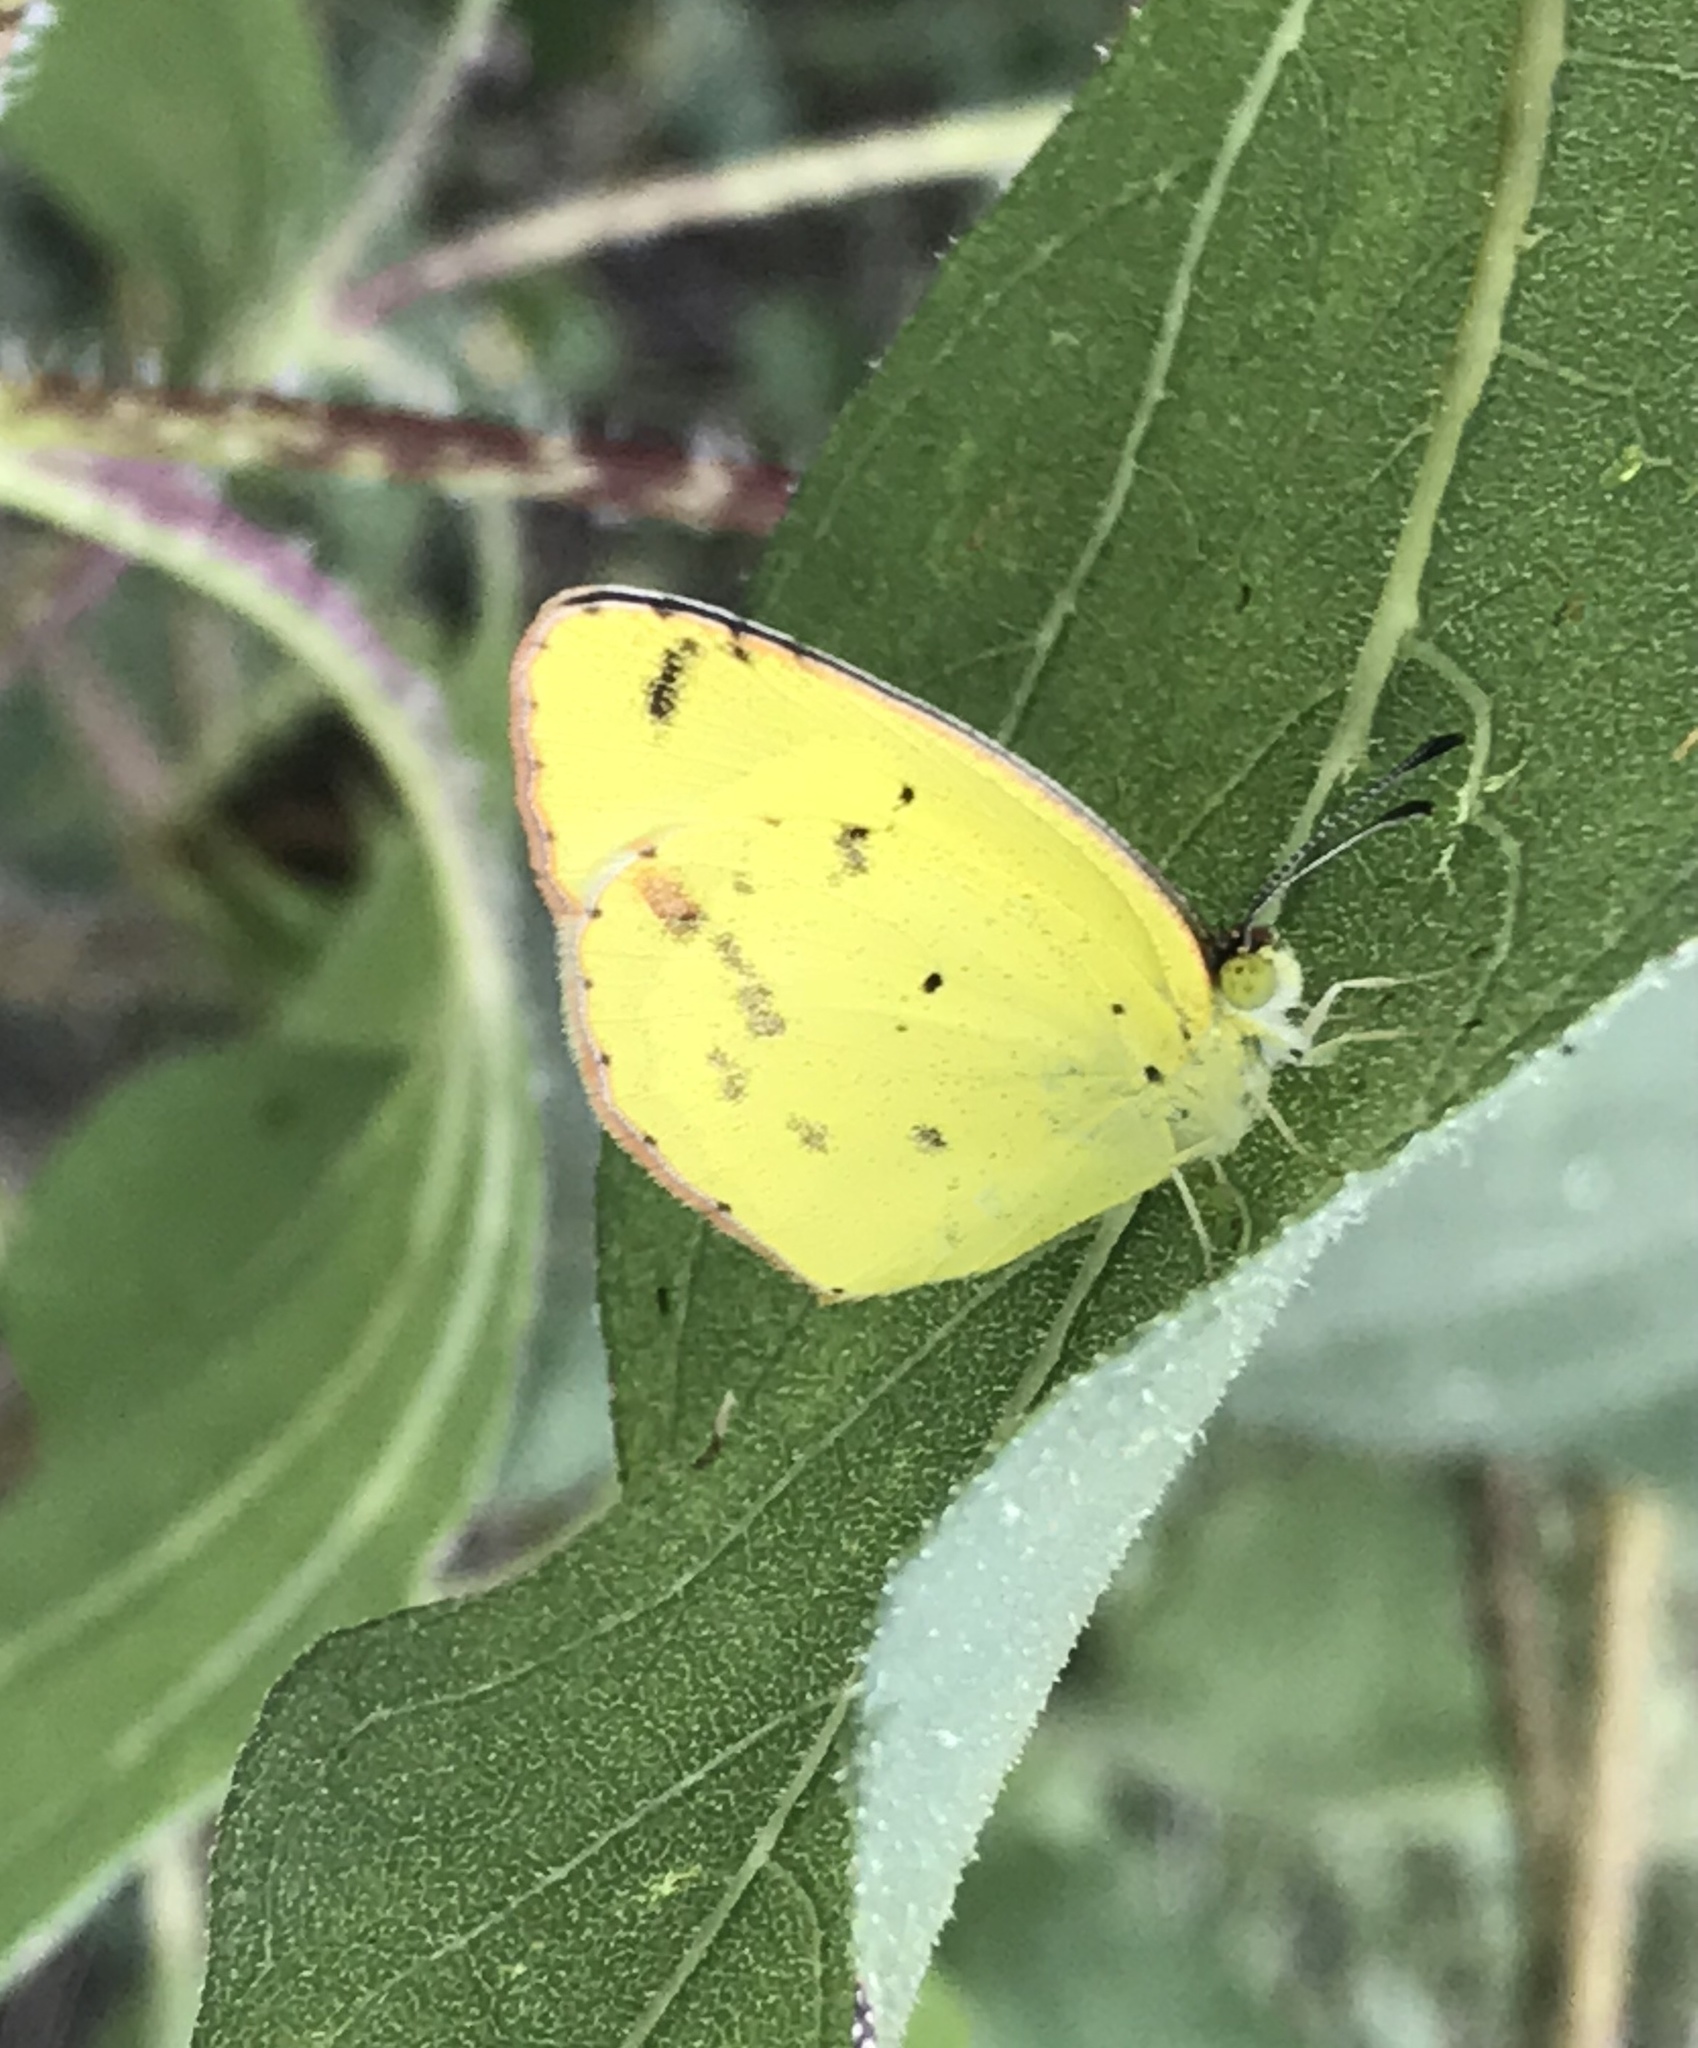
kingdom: Animalia
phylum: Arthropoda
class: Insecta
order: Lepidoptera
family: Pieridae
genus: Pyrisitia
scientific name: Pyrisitia lisa
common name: Little yellow
